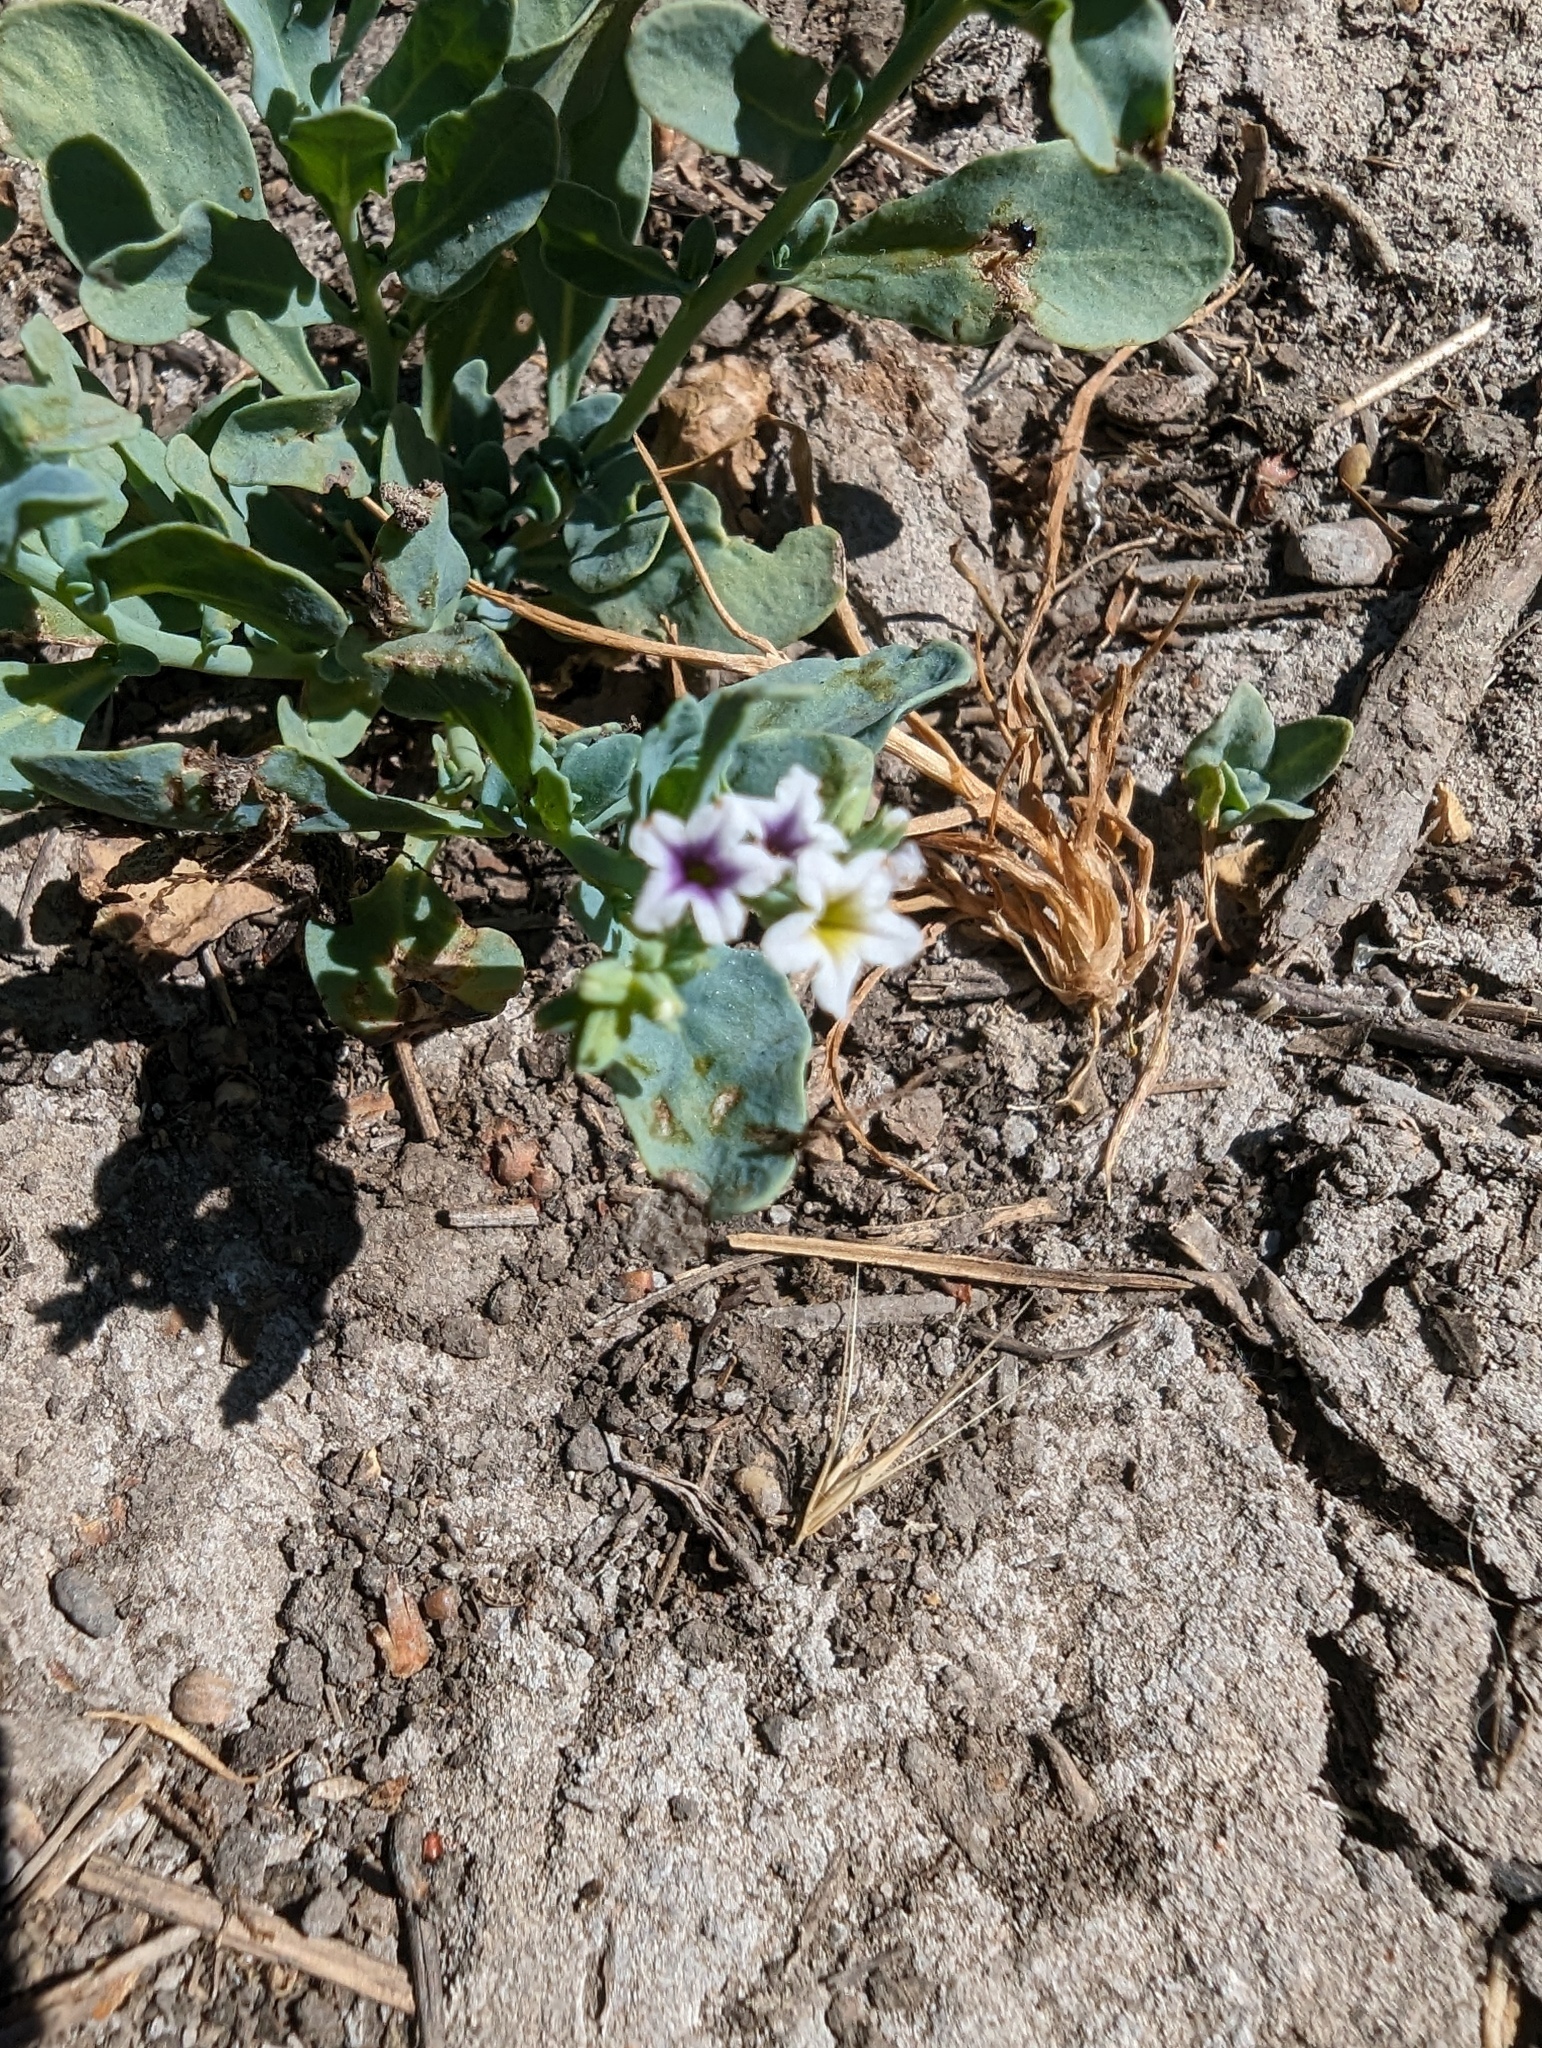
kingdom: Plantae
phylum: Tracheophyta
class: Magnoliopsida
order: Boraginales
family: Heliotropiaceae
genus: Heliotropium
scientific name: Heliotropium curassavicum
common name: Seaside heliotrope
